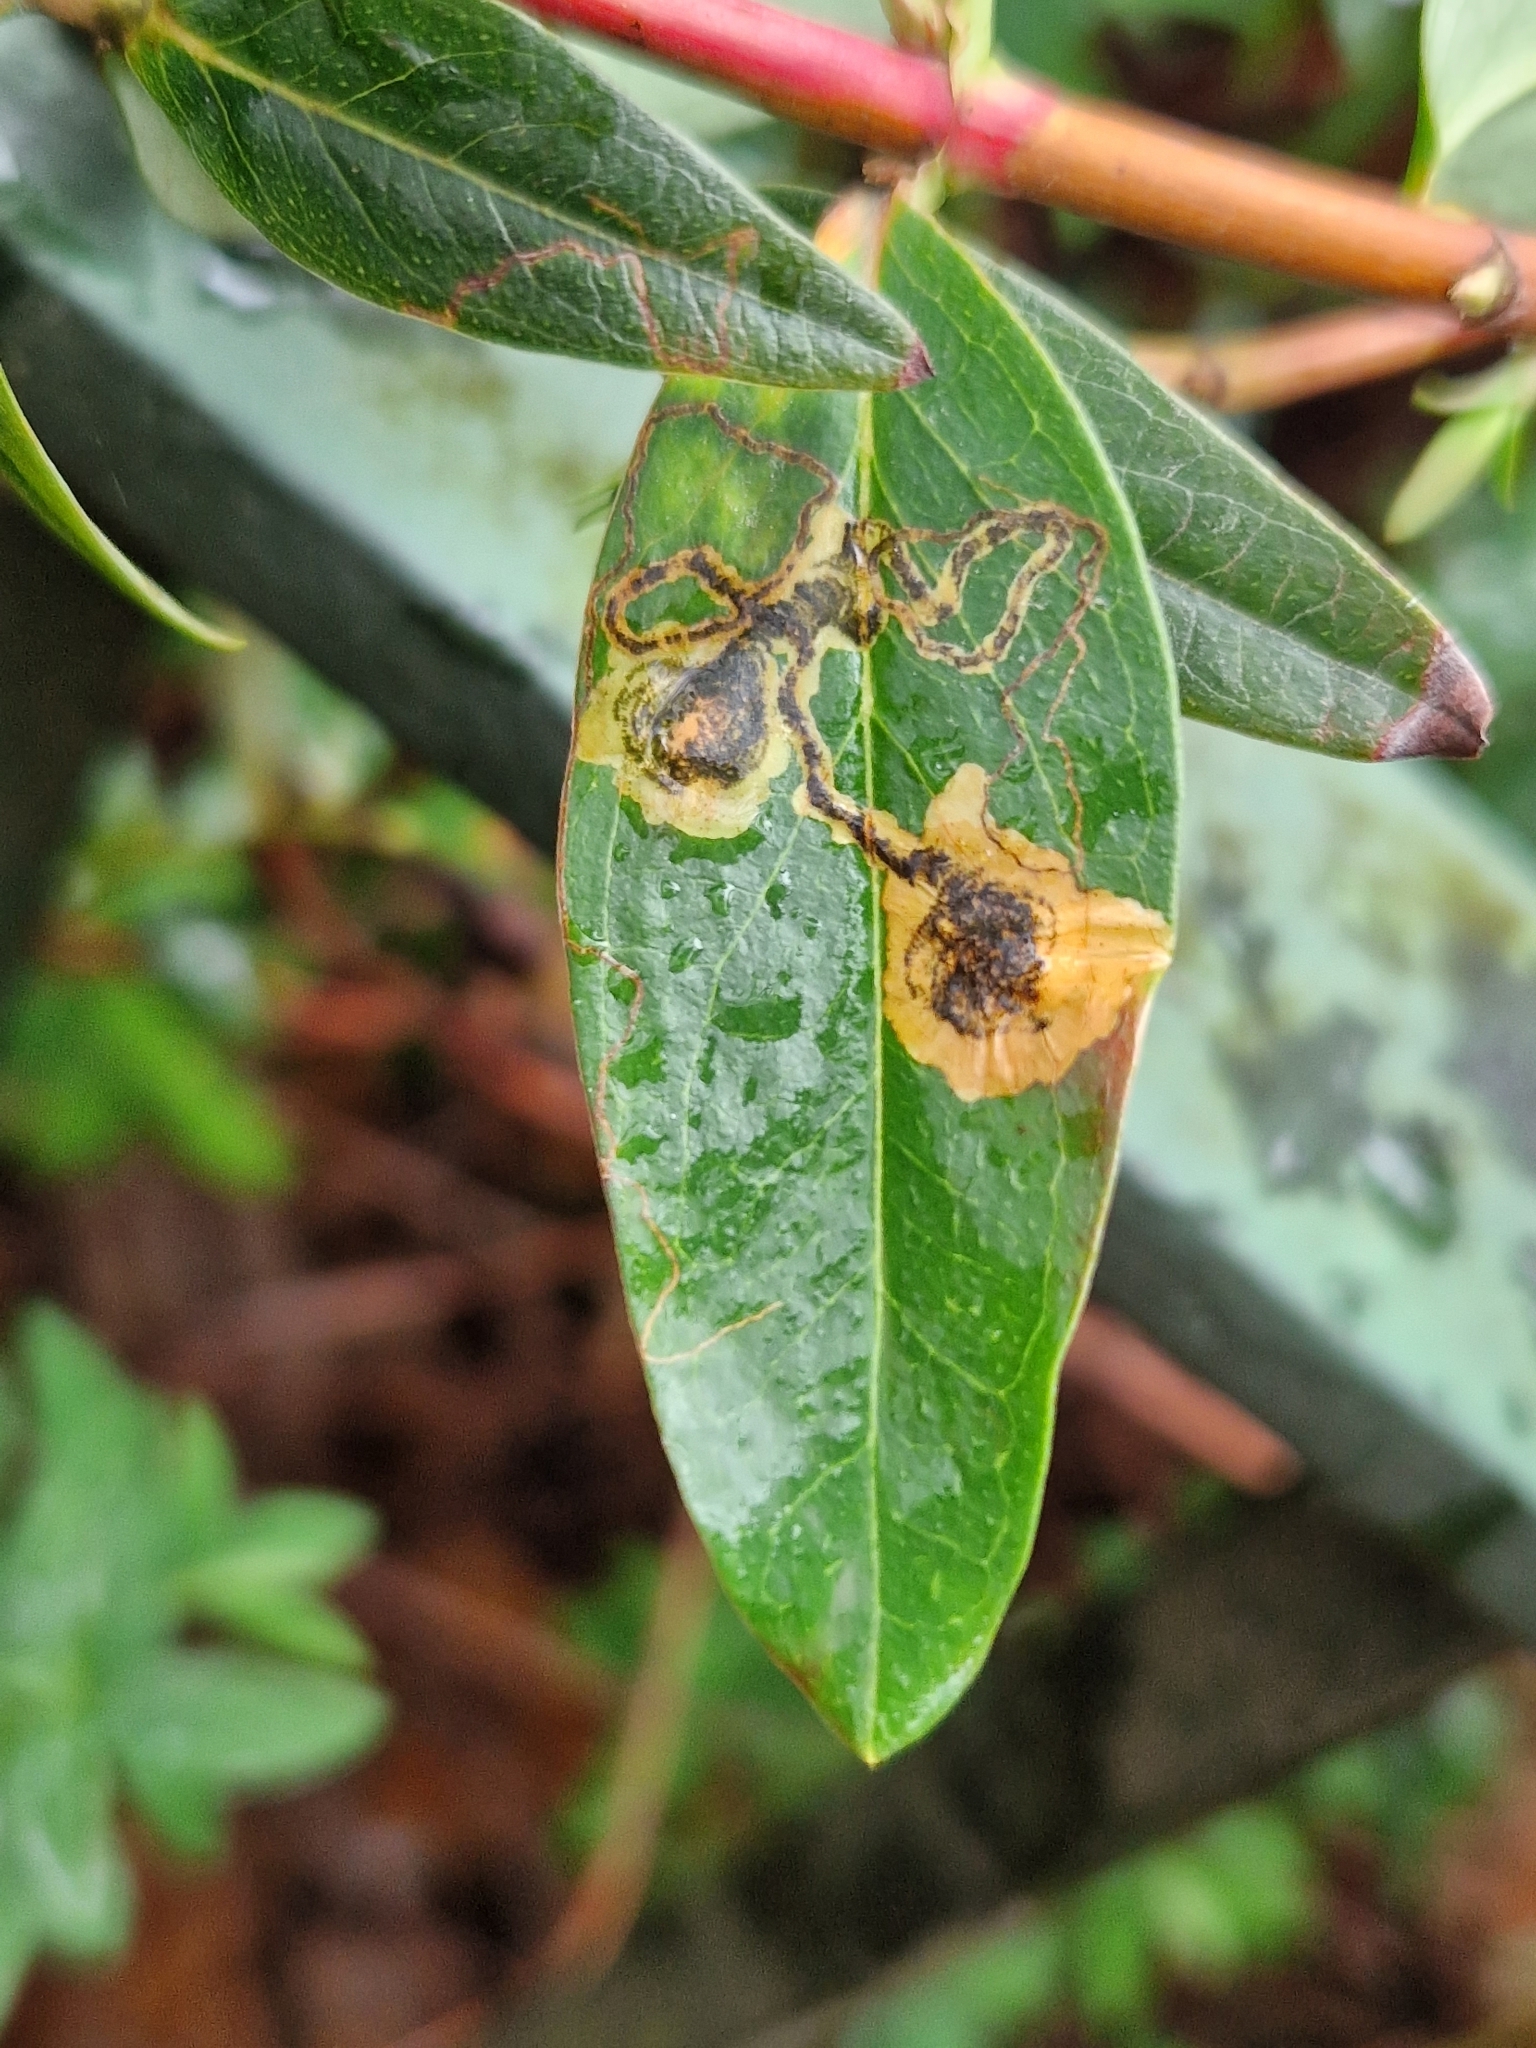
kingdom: Animalia
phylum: Arthropoda
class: Insecta
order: Lepidoptera
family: Nepticulidae
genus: Fomoria
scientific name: Fomoria septembrella
